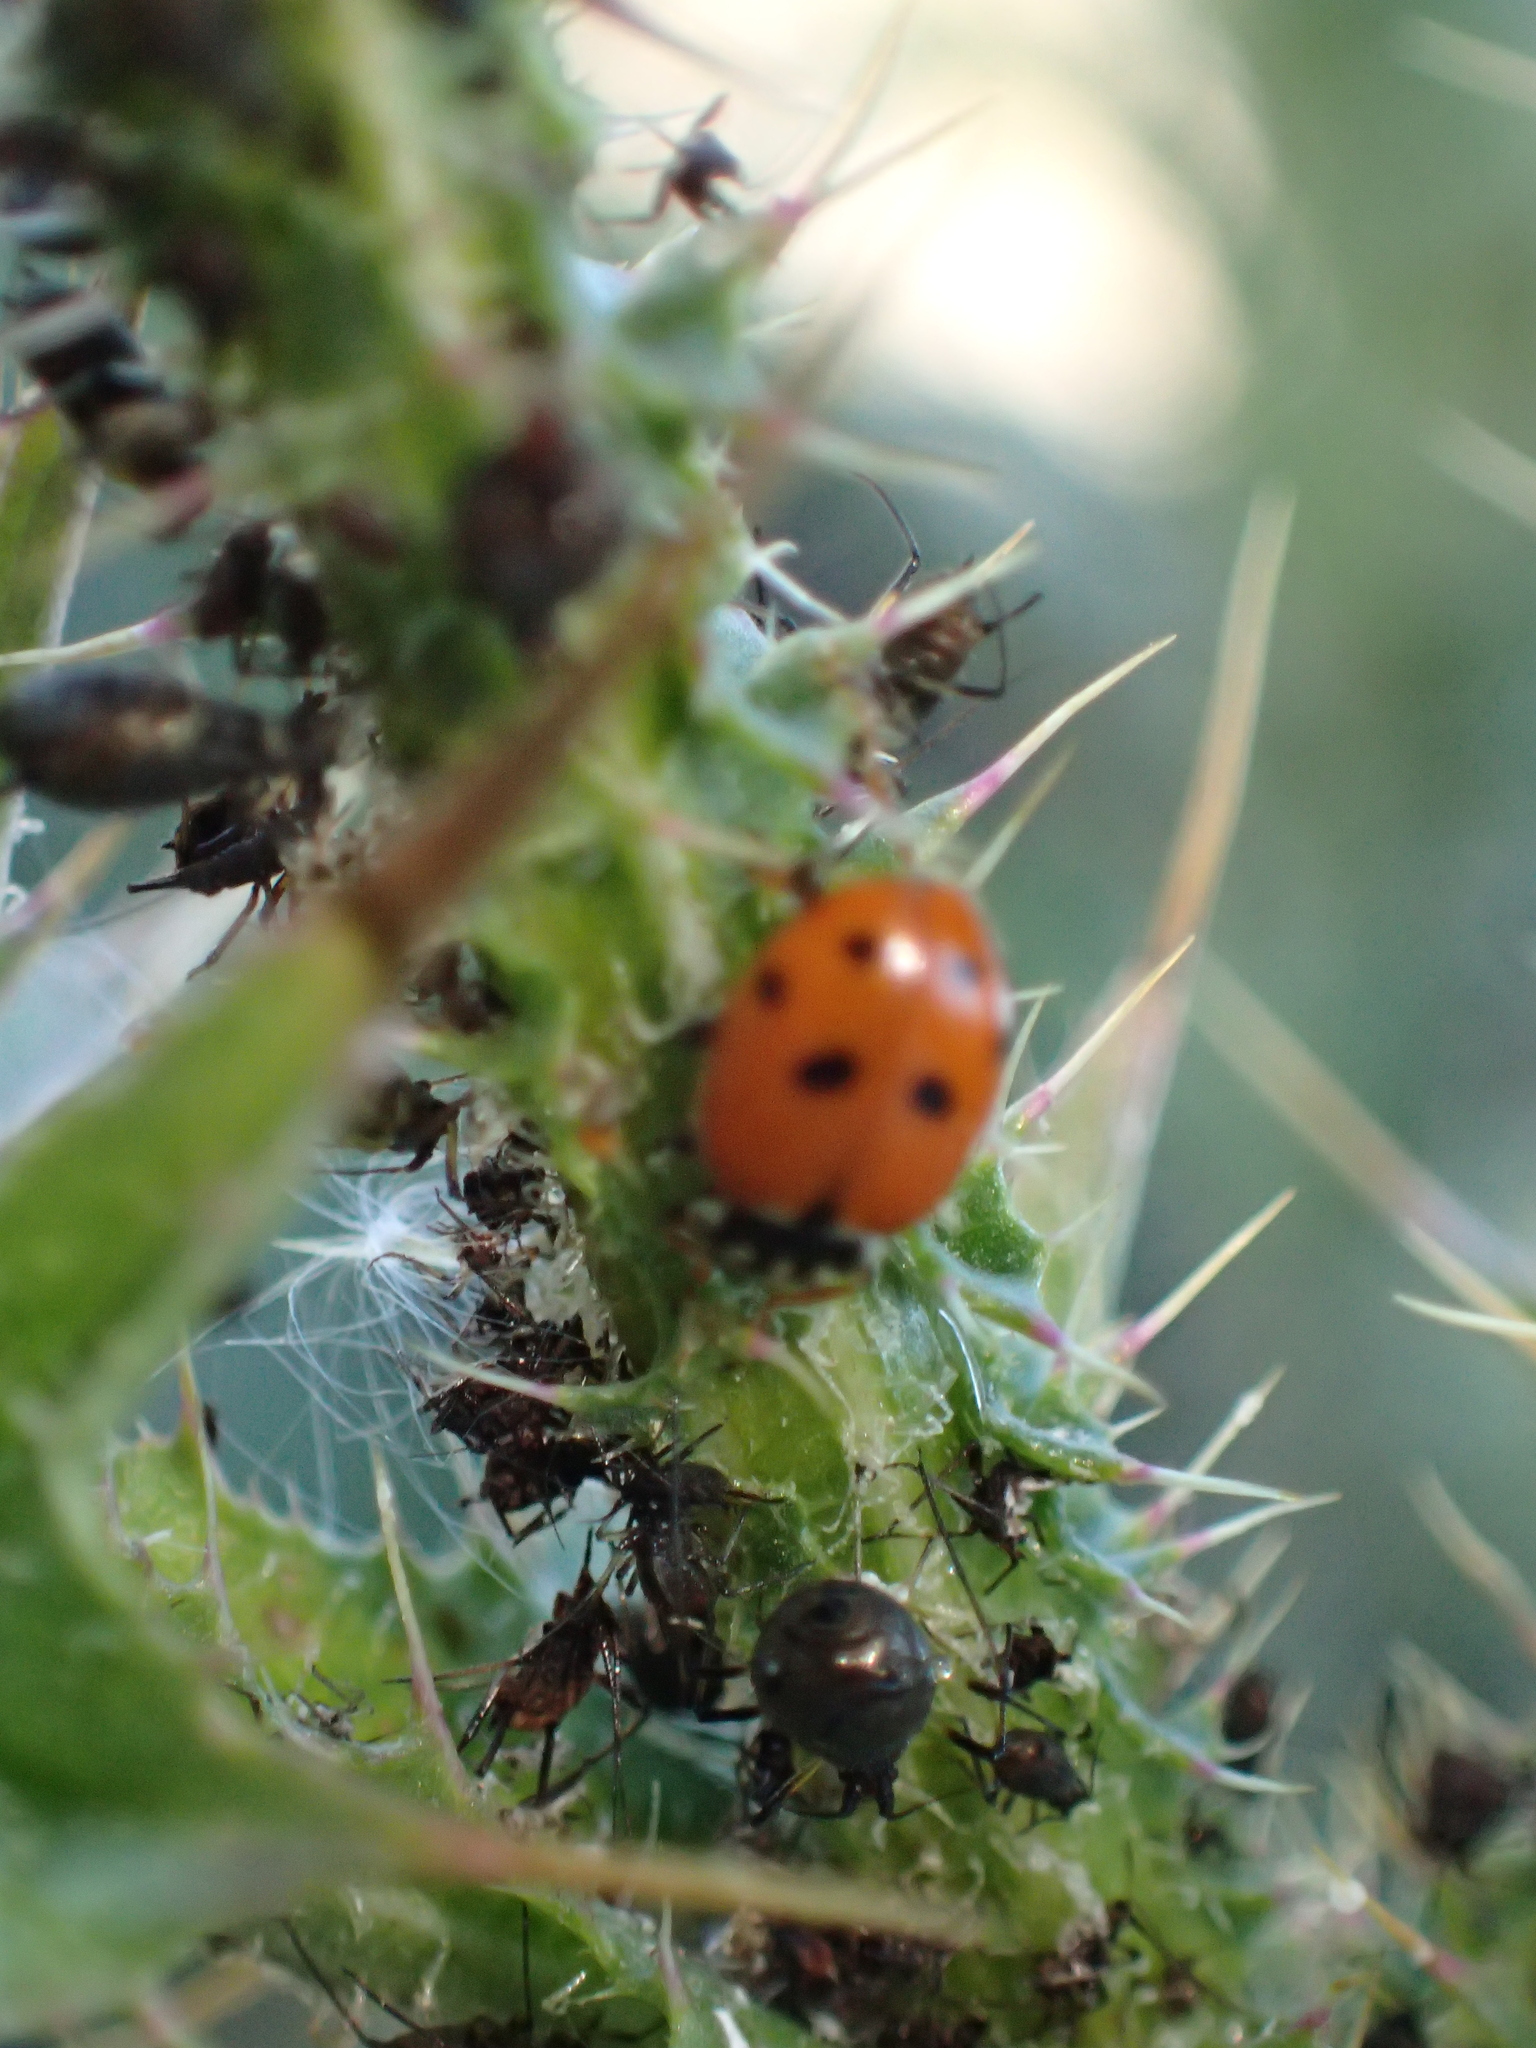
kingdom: Animalia
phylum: Arthropoda
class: Insecta
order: Coleoptera
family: Coccinellidae
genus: Hippodamia
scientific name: Hippodamia variegata
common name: Ladybird beetle
